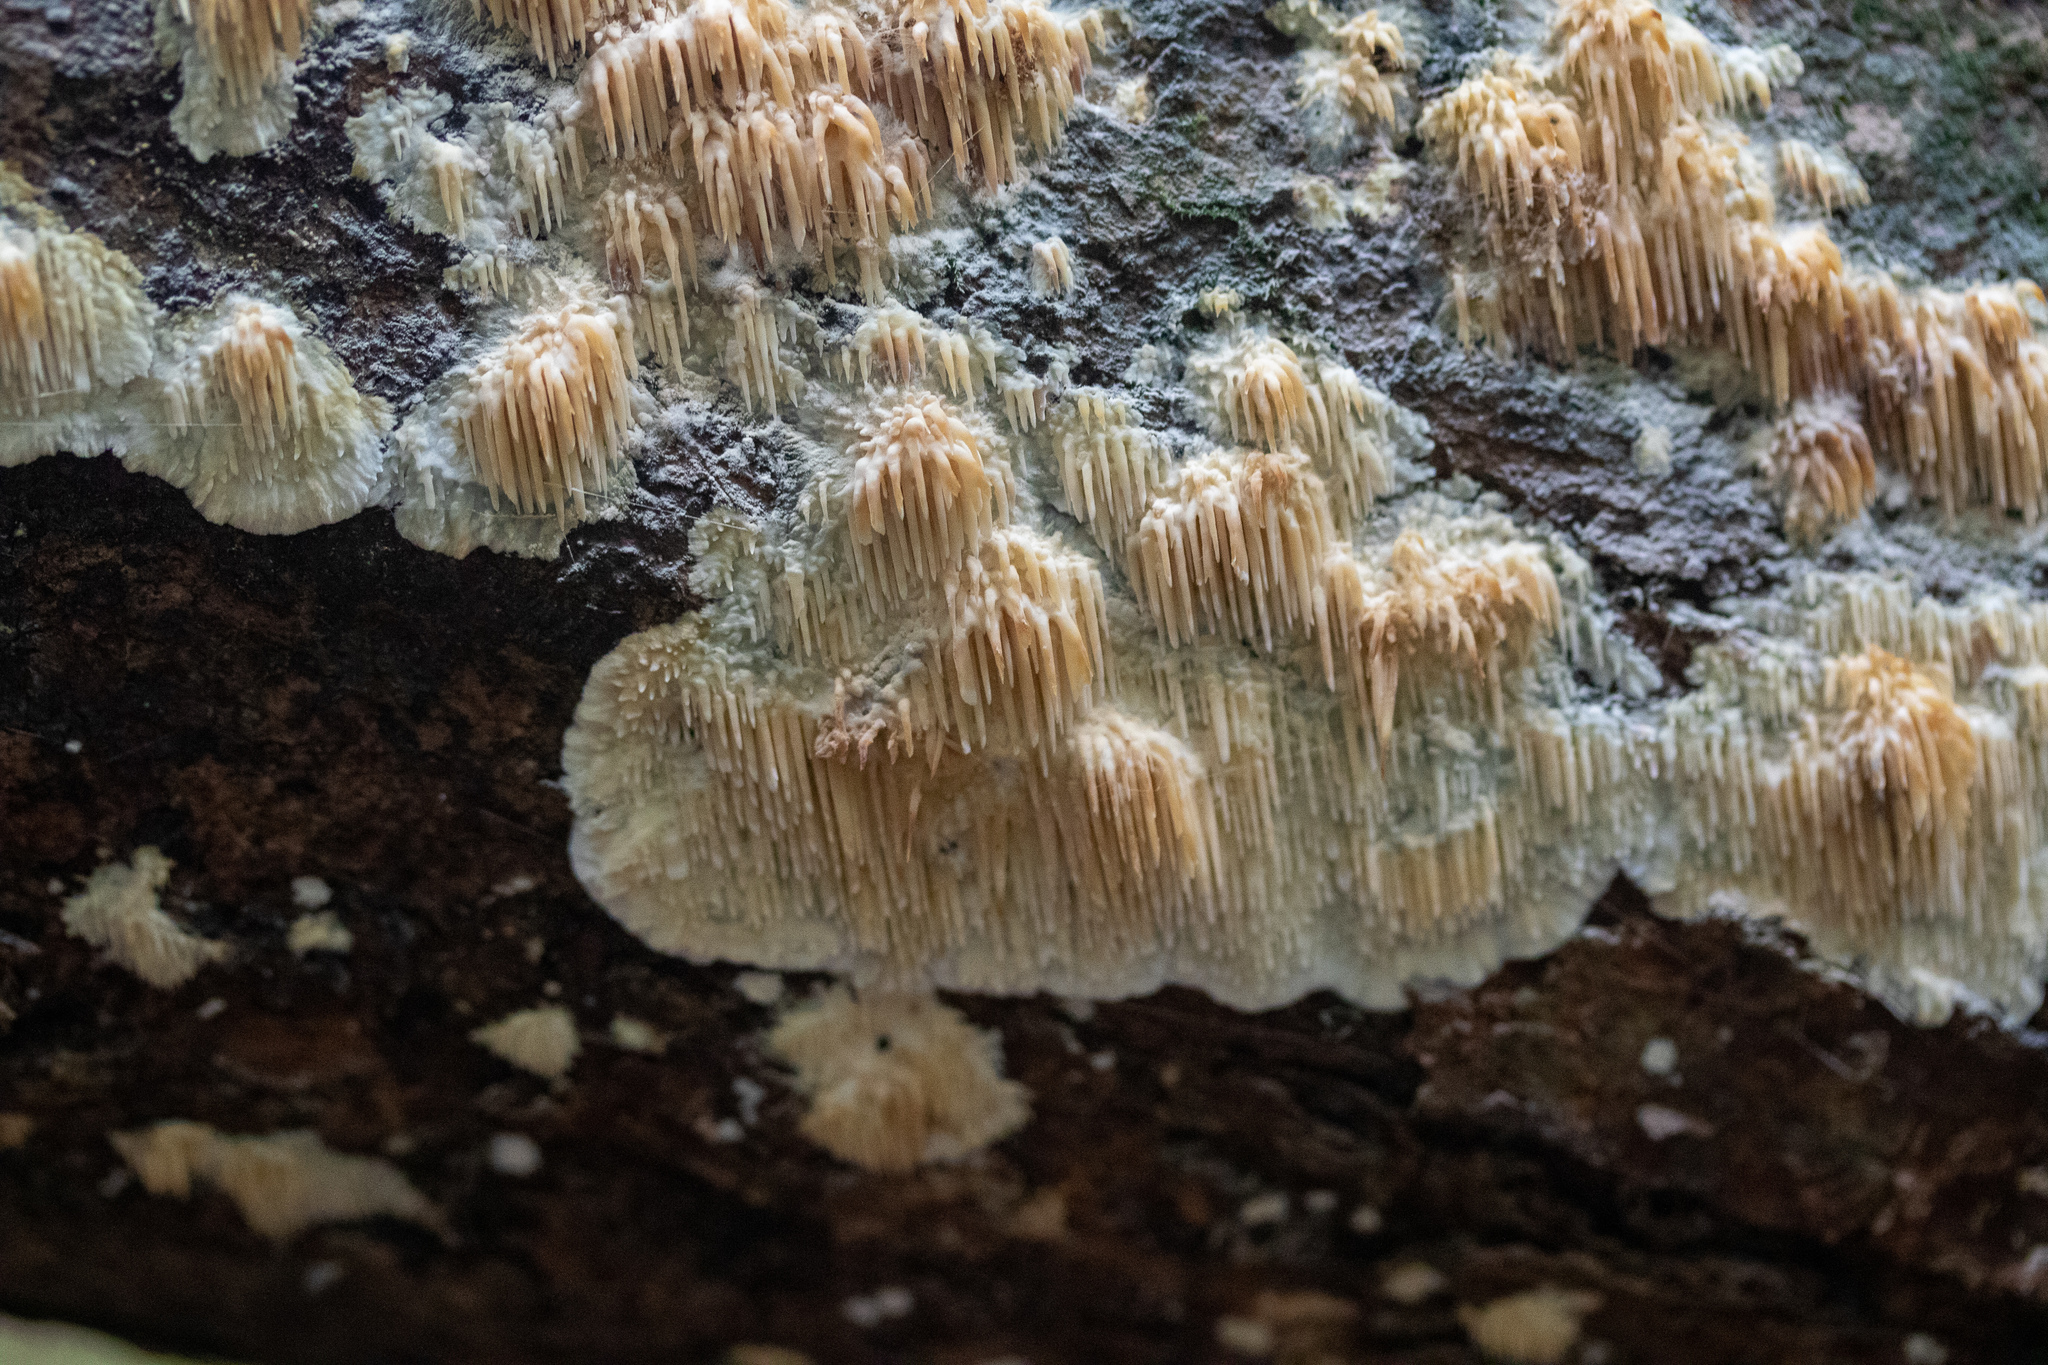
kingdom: Fungi
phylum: Basidiomycota
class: Agaricomycetes
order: Agaricales
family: Radulomycetaceae
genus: Radulomyces
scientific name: Radulomyces copelandii
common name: Asian beauty
